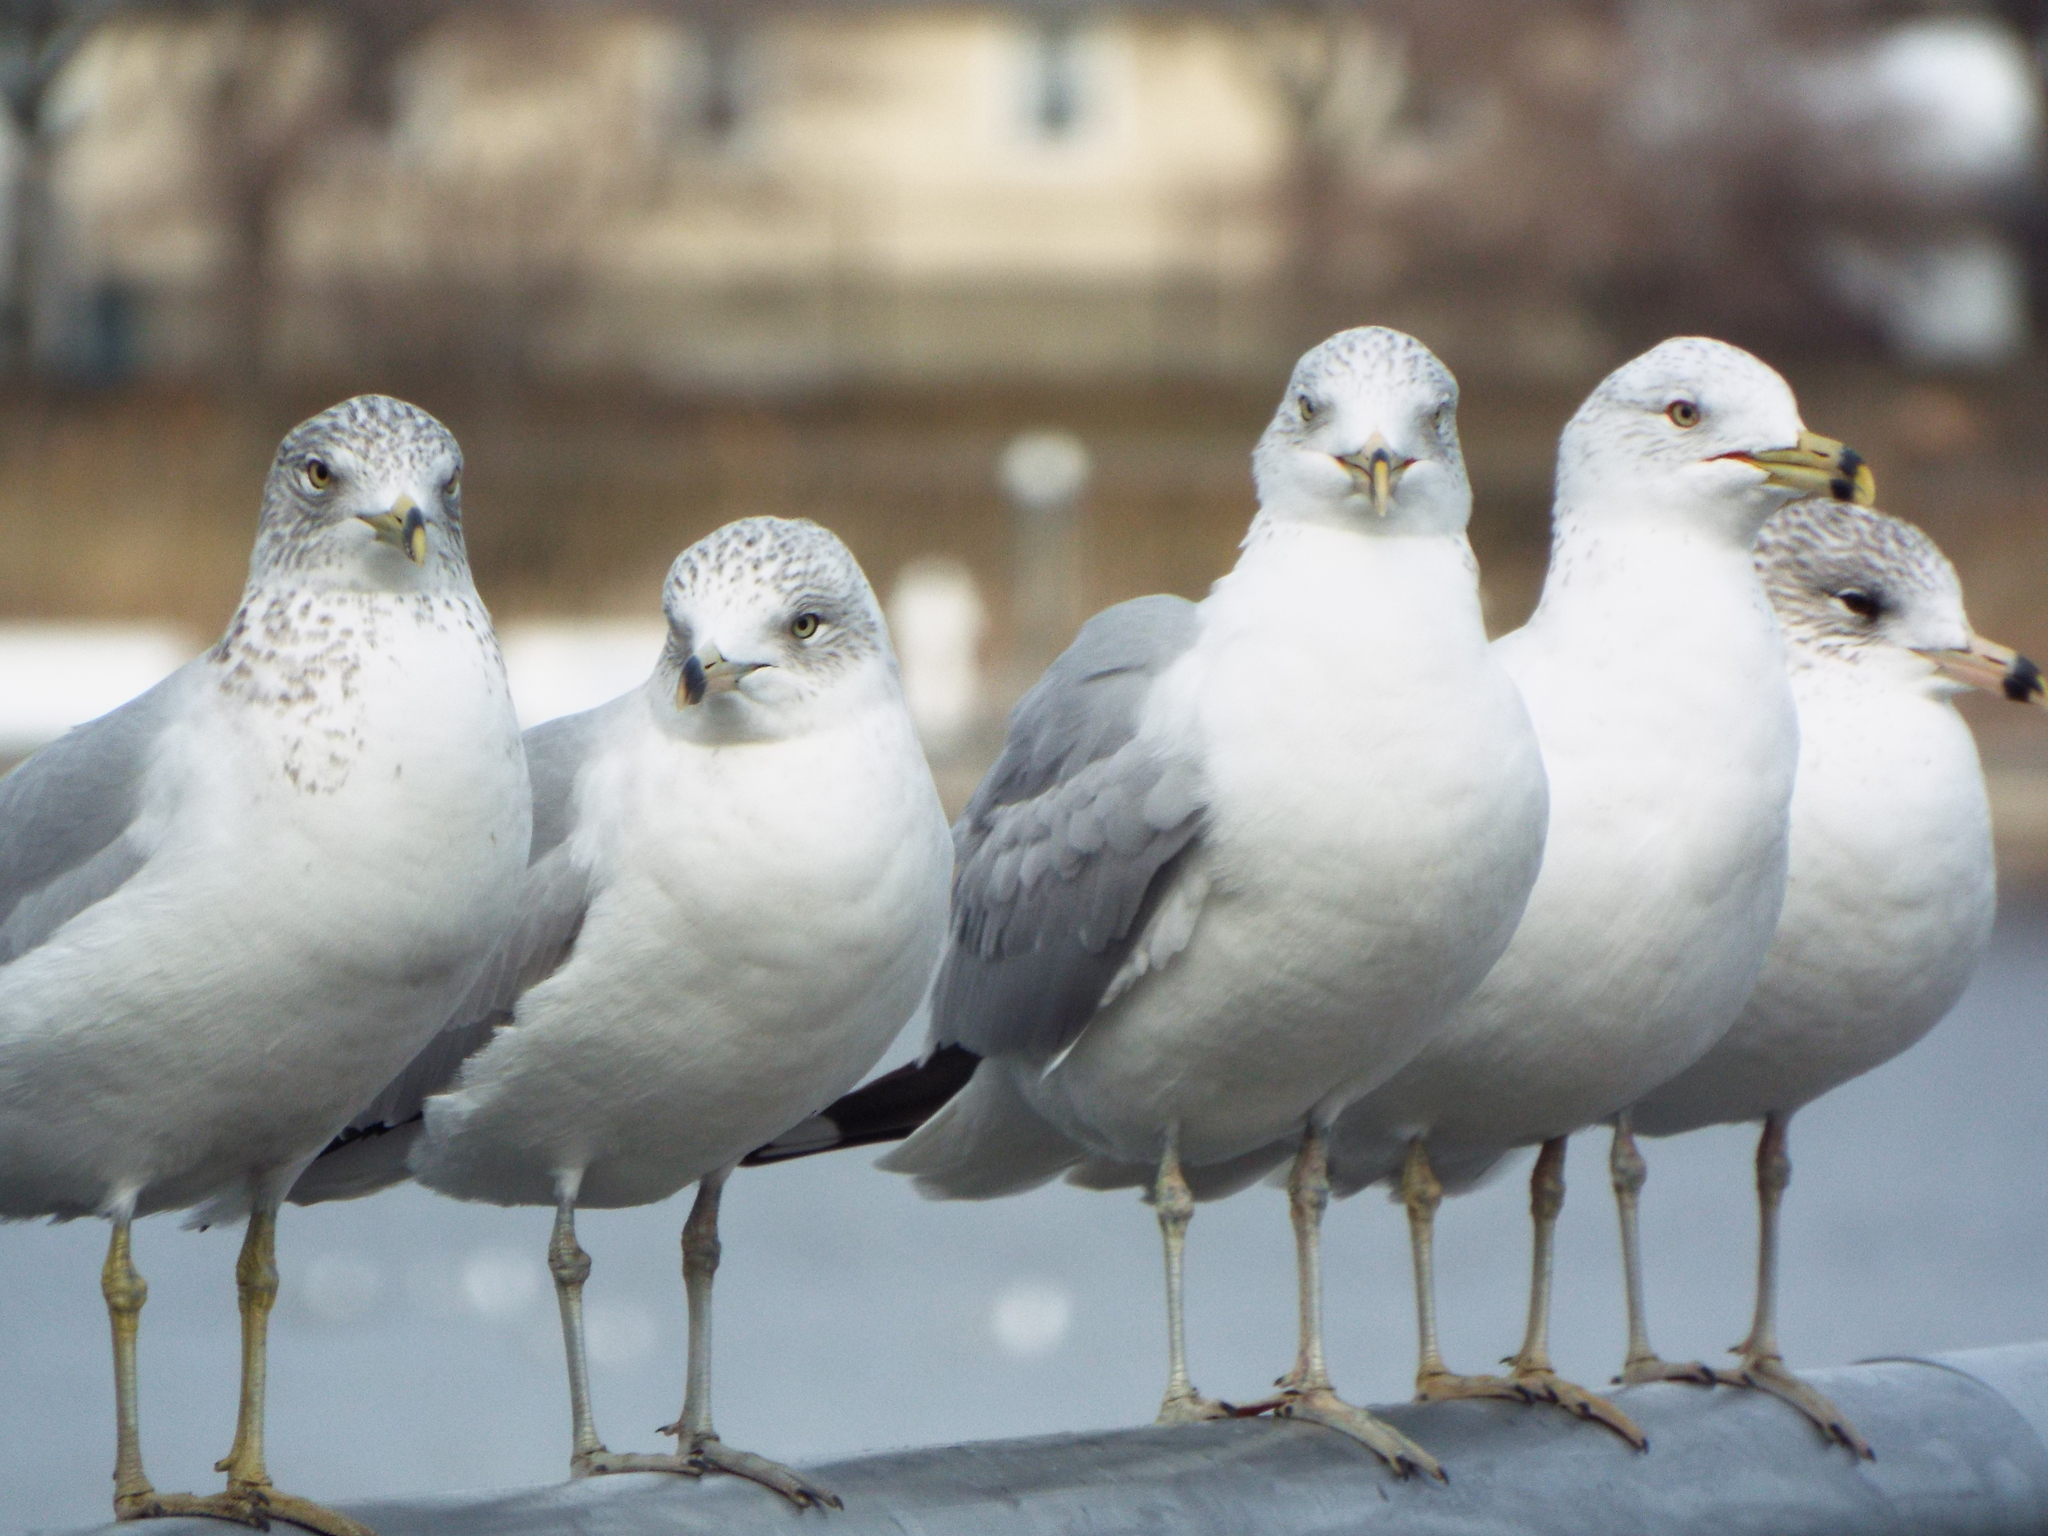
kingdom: Animalia
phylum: Chordata
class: Aves
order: Charadriiformes
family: Laridae
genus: Larus
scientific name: Larus delawarensis
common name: Ring-billed gull
